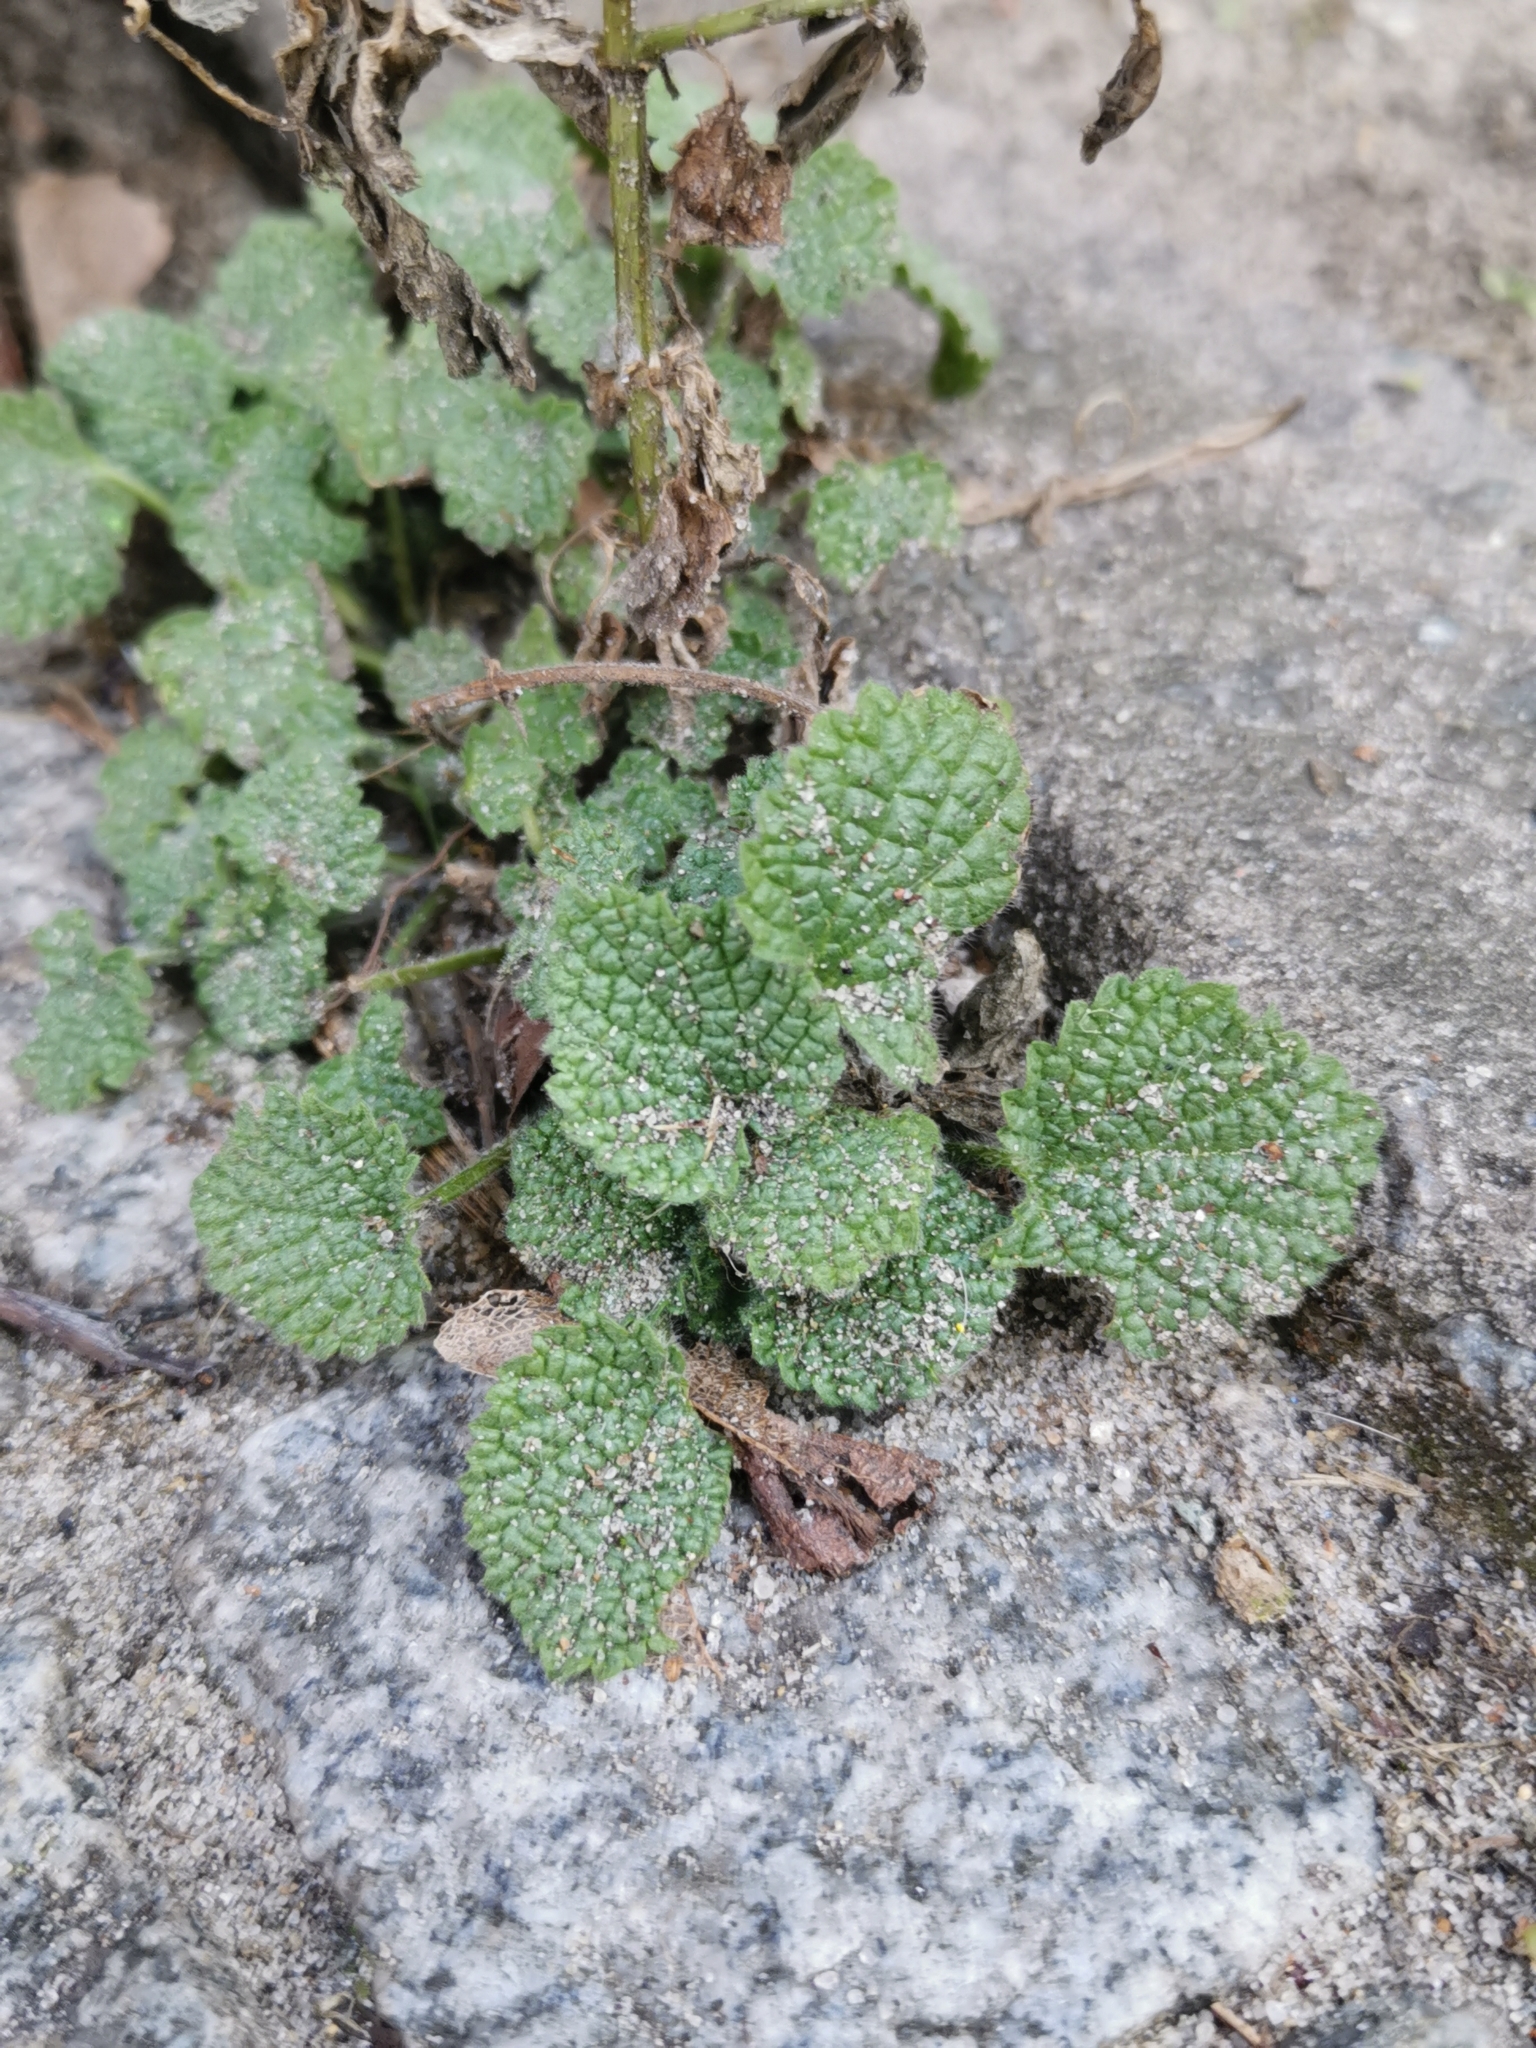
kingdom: Plantae
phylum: Tracheophyta
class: Magnoliopsida
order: Lamiales
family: Lamiaceae
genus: Ballota
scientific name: Ballota nigra
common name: Black horehound
